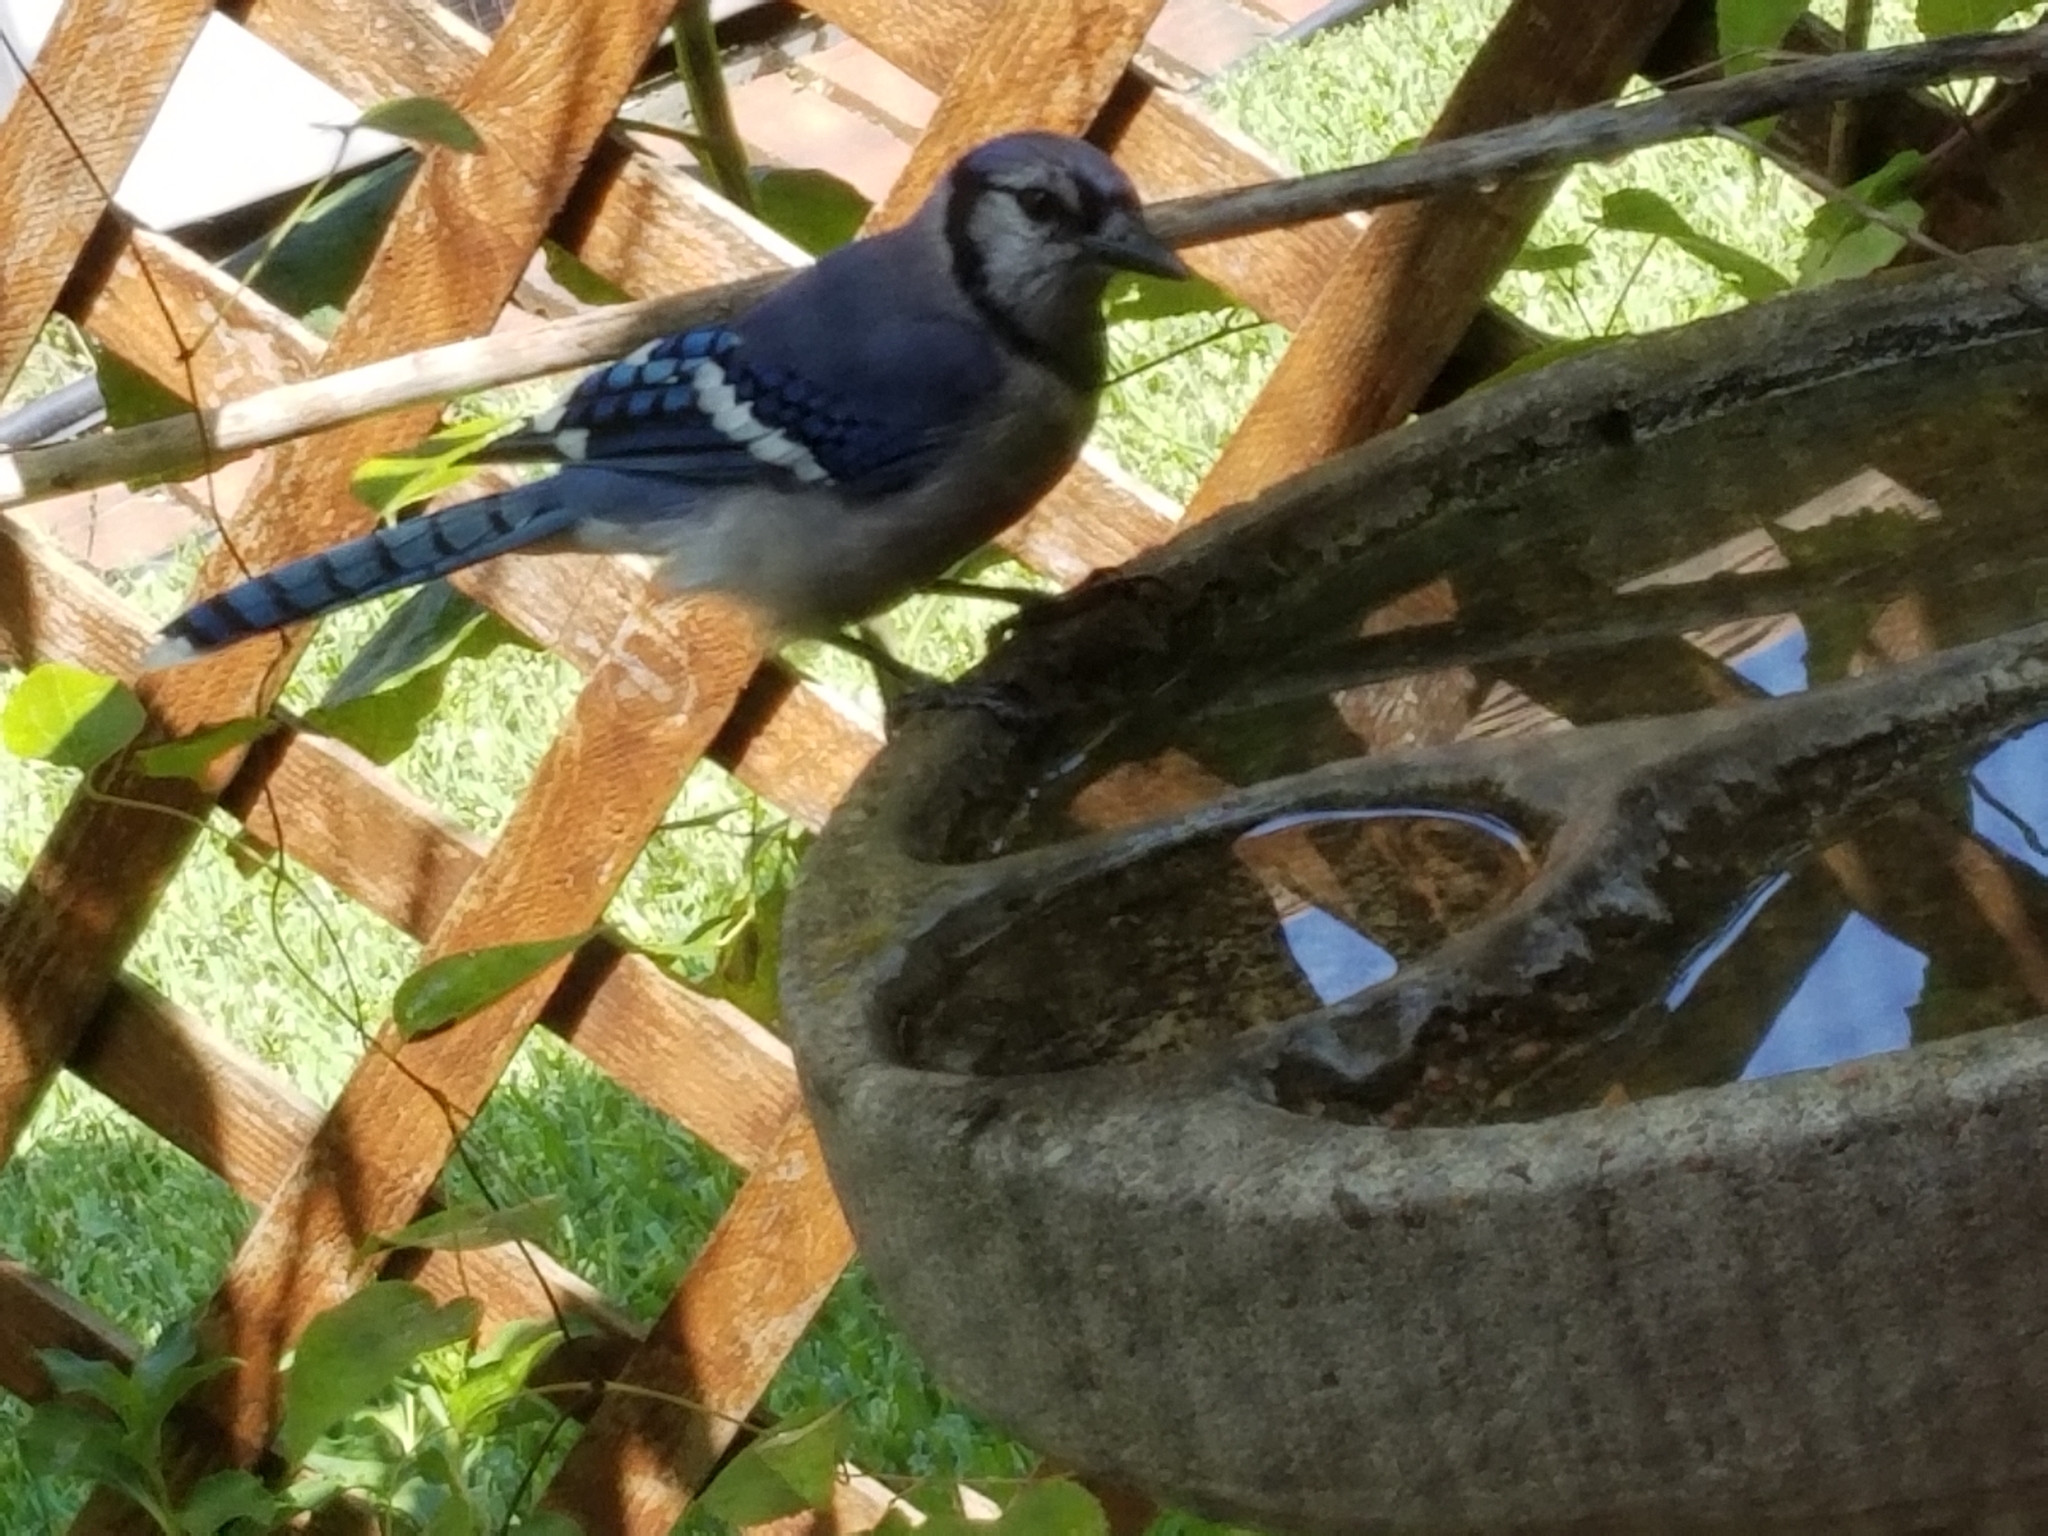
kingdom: Animalia
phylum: Chordata
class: Aves
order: Passeriformes
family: Corvidae
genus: Cyanocitta
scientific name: Cyanocitta cristata
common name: Blue jay
